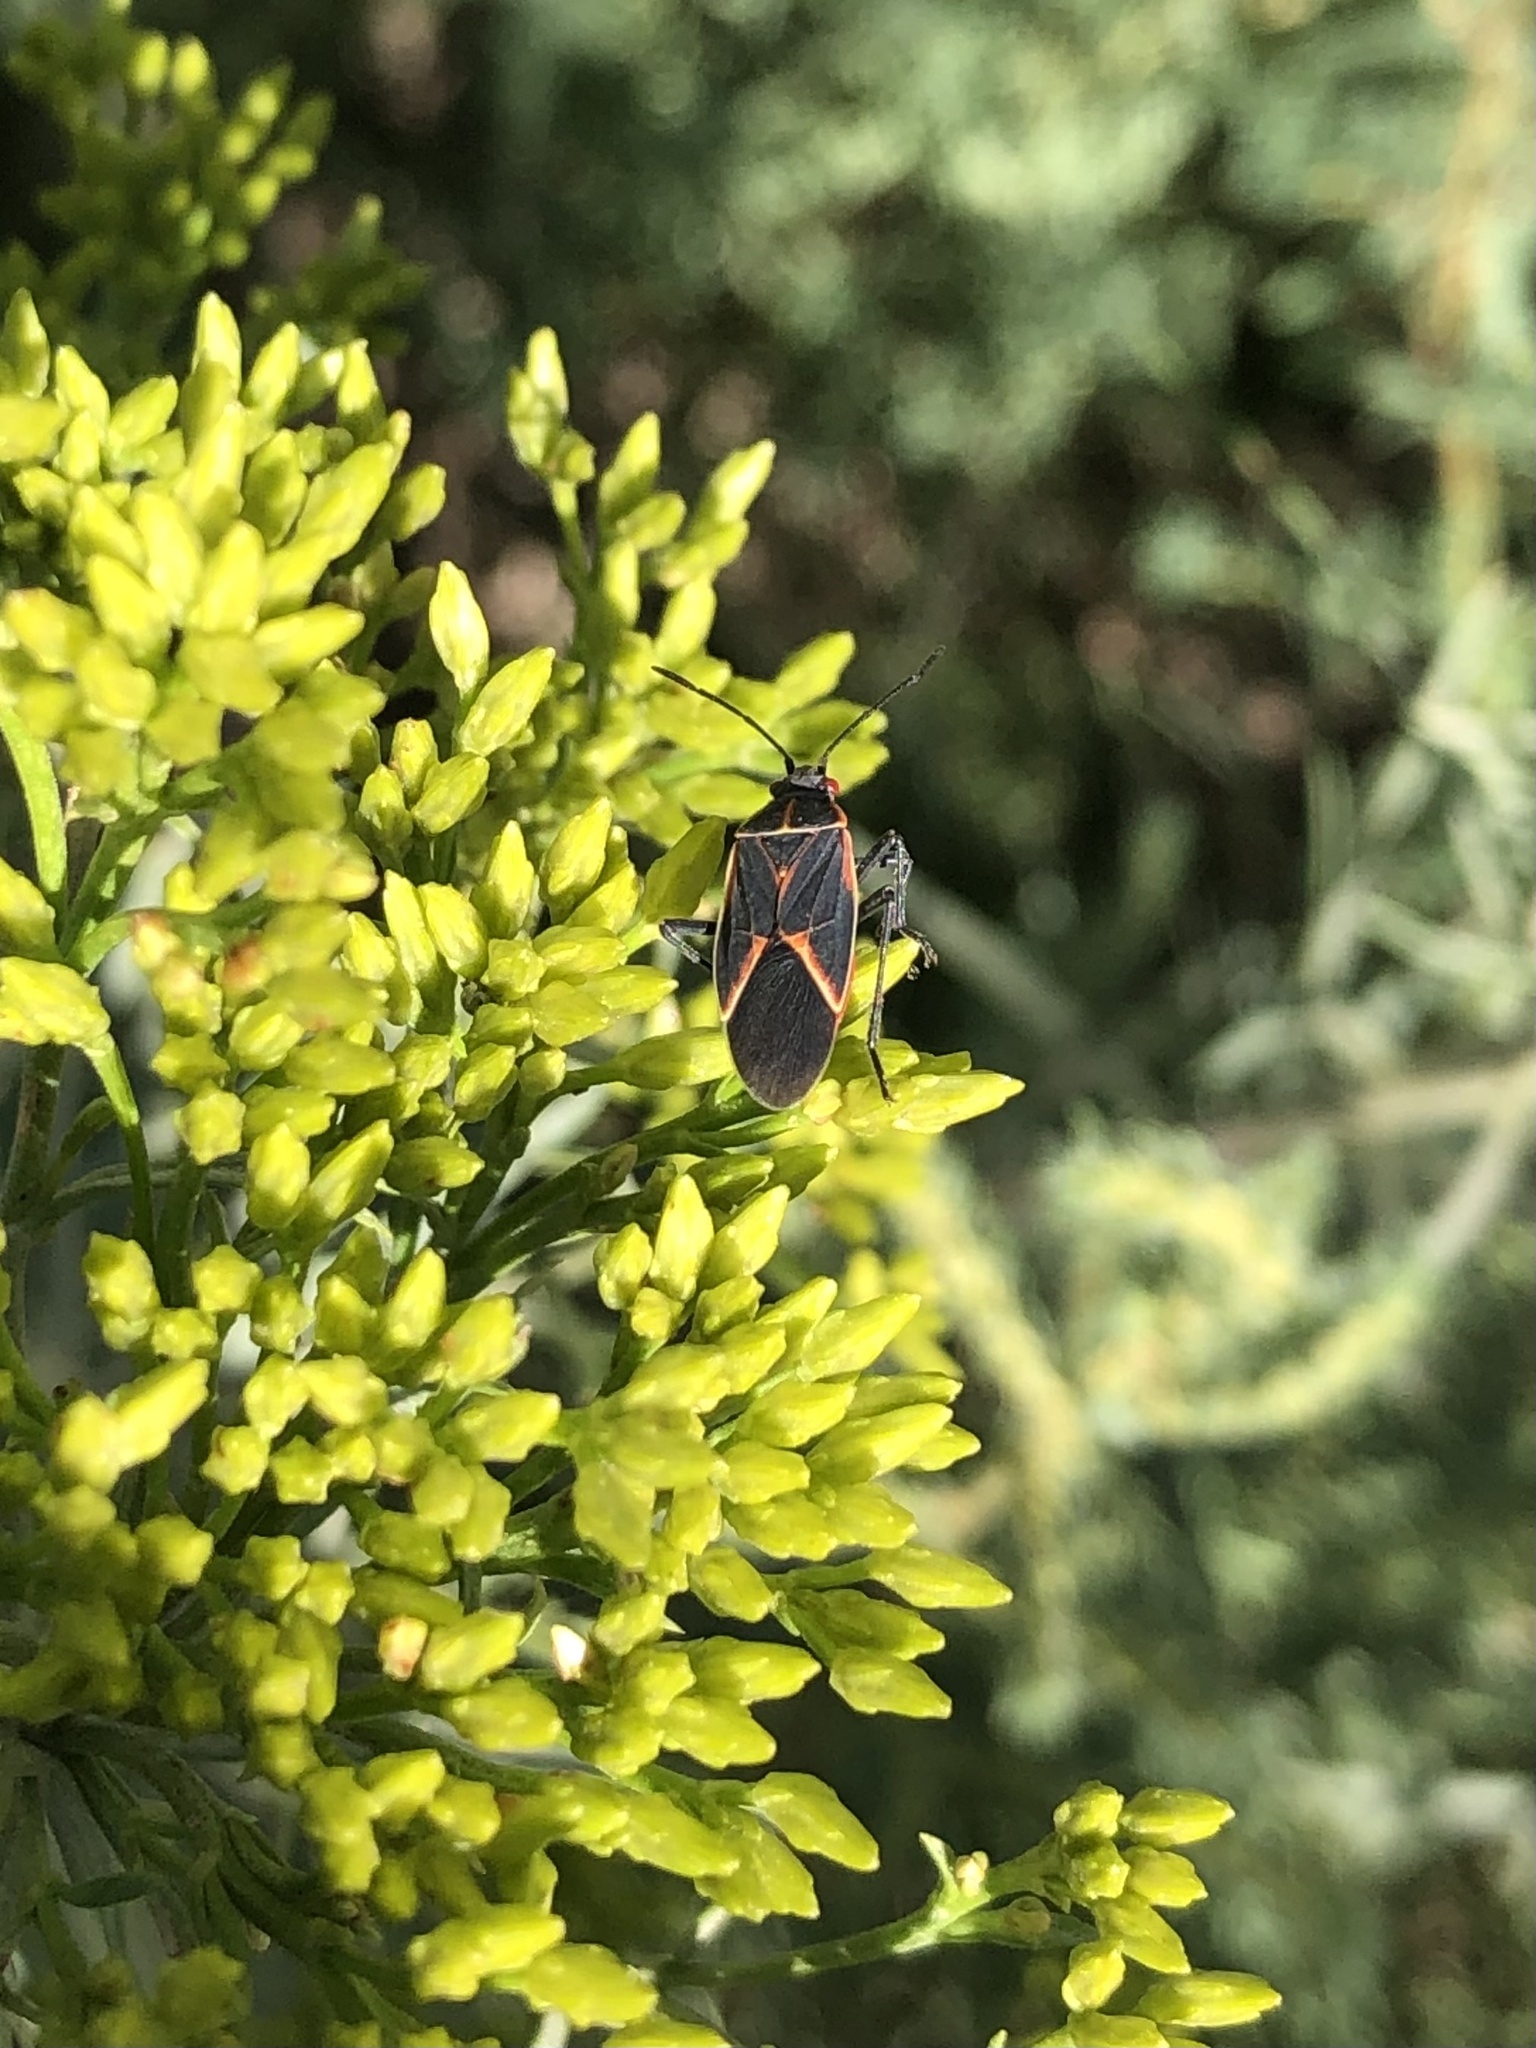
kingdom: Animalia
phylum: Arthropoda
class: Insecta
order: Hemiptera
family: Rhopalidae
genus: Boisea
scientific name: Boisea trivittata
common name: Boxelder bug
